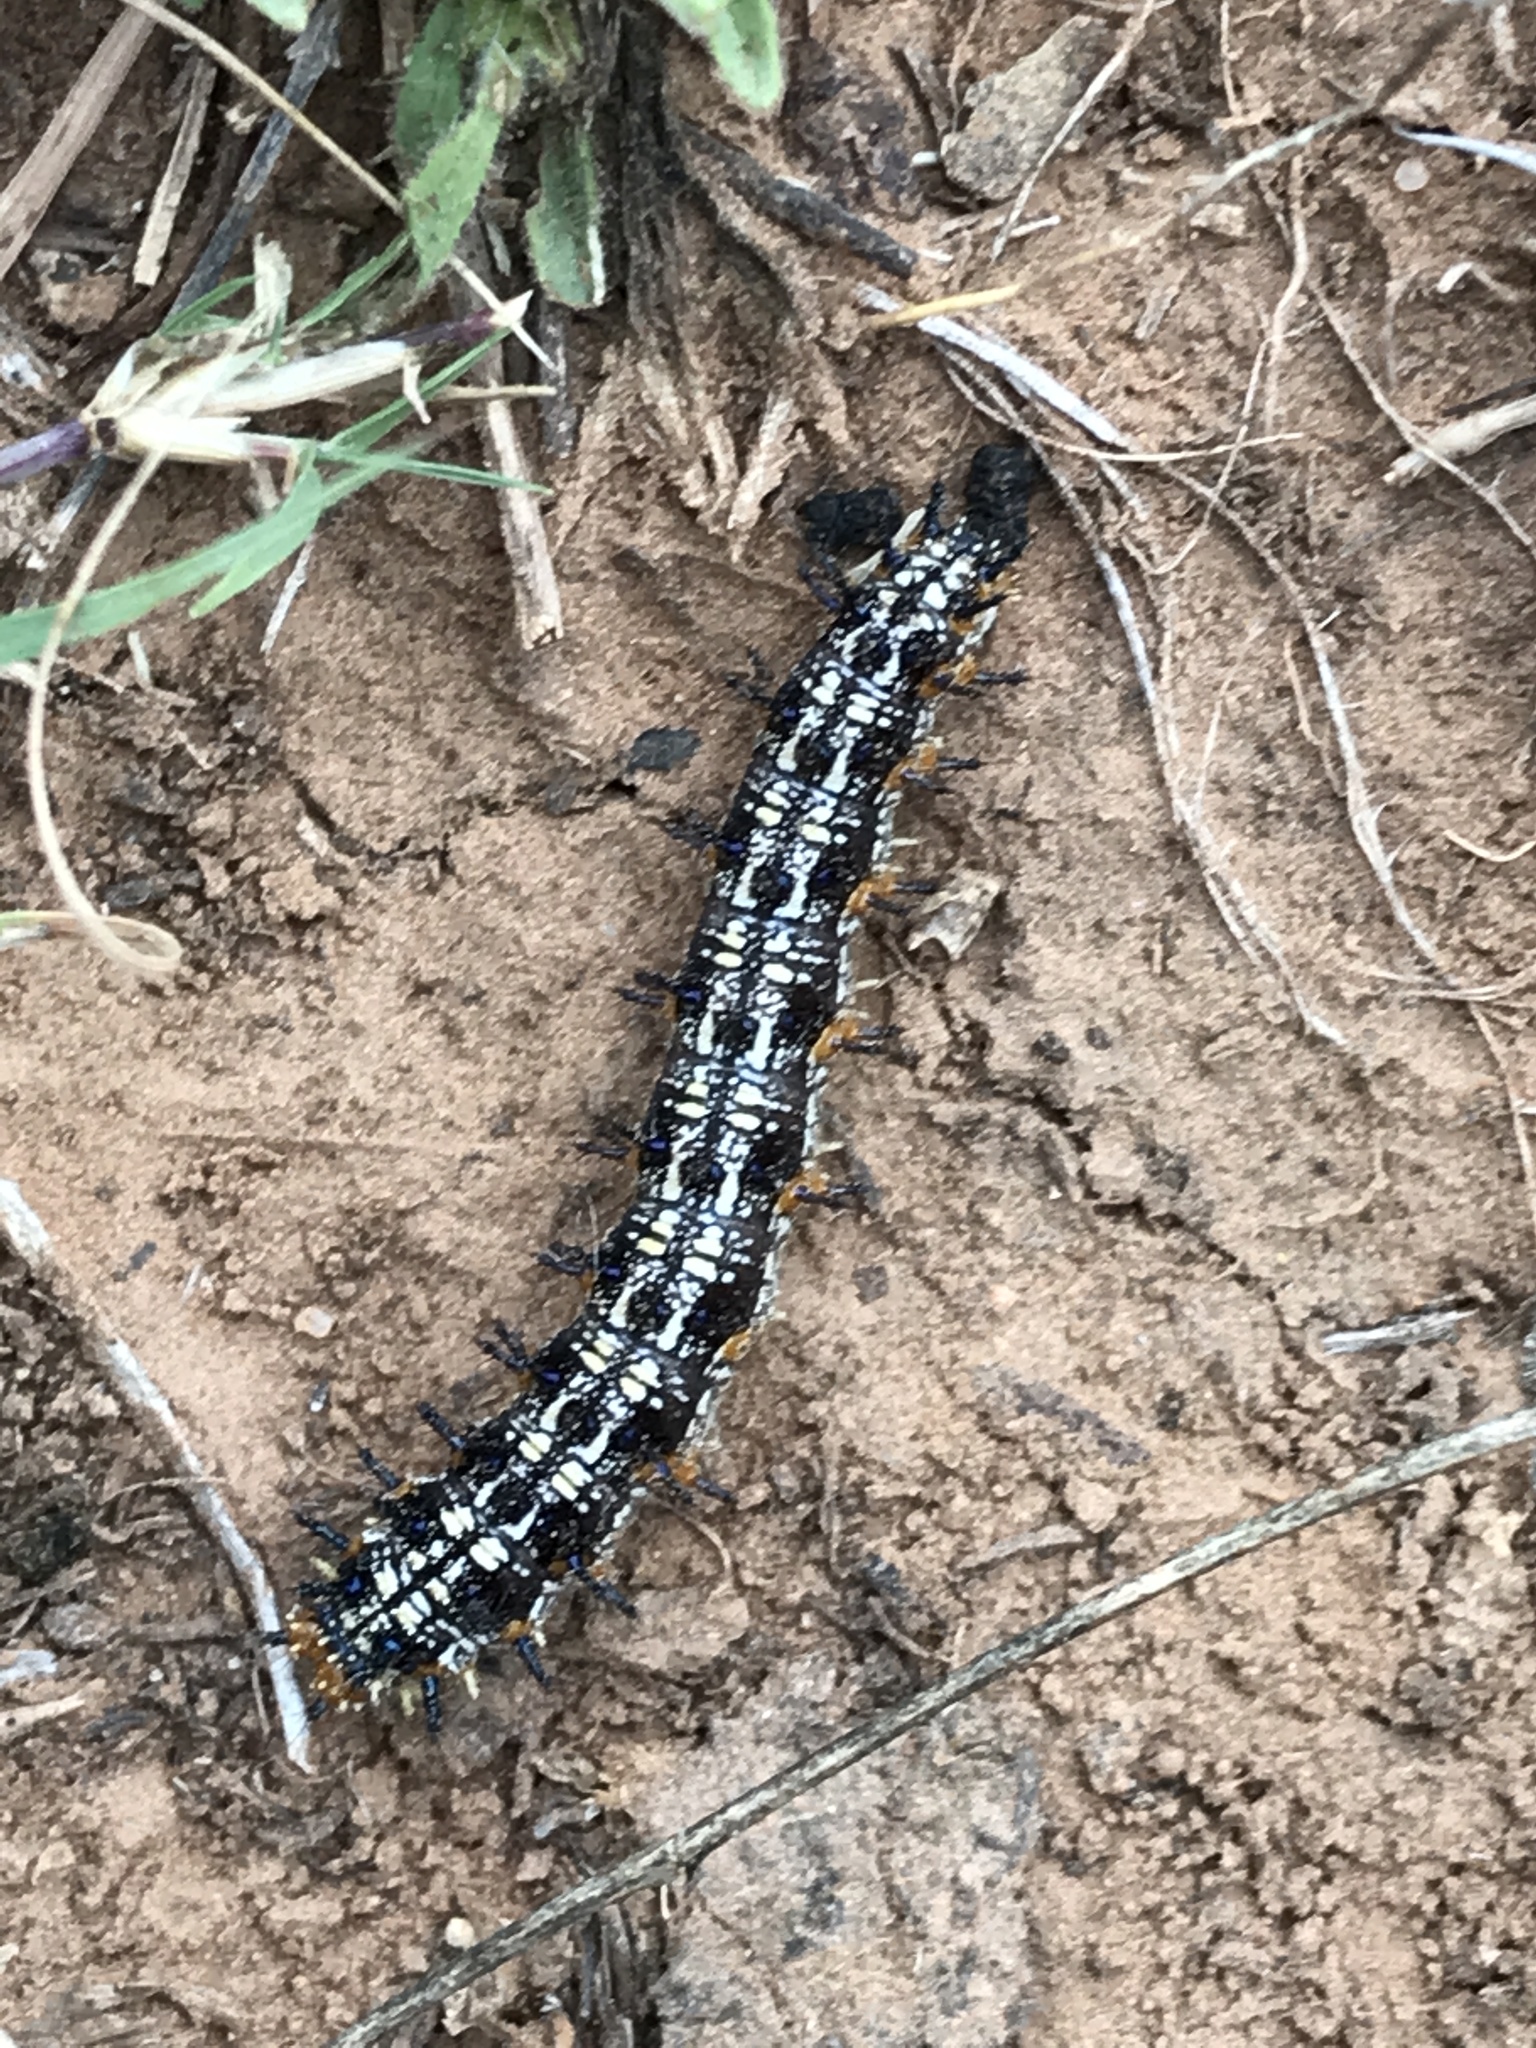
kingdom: Animalia
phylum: Arthropoda
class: Insecta
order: Lepidoptera
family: Nymphalidae
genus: Junonia
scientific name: Junonia coenia
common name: Common buckeye
